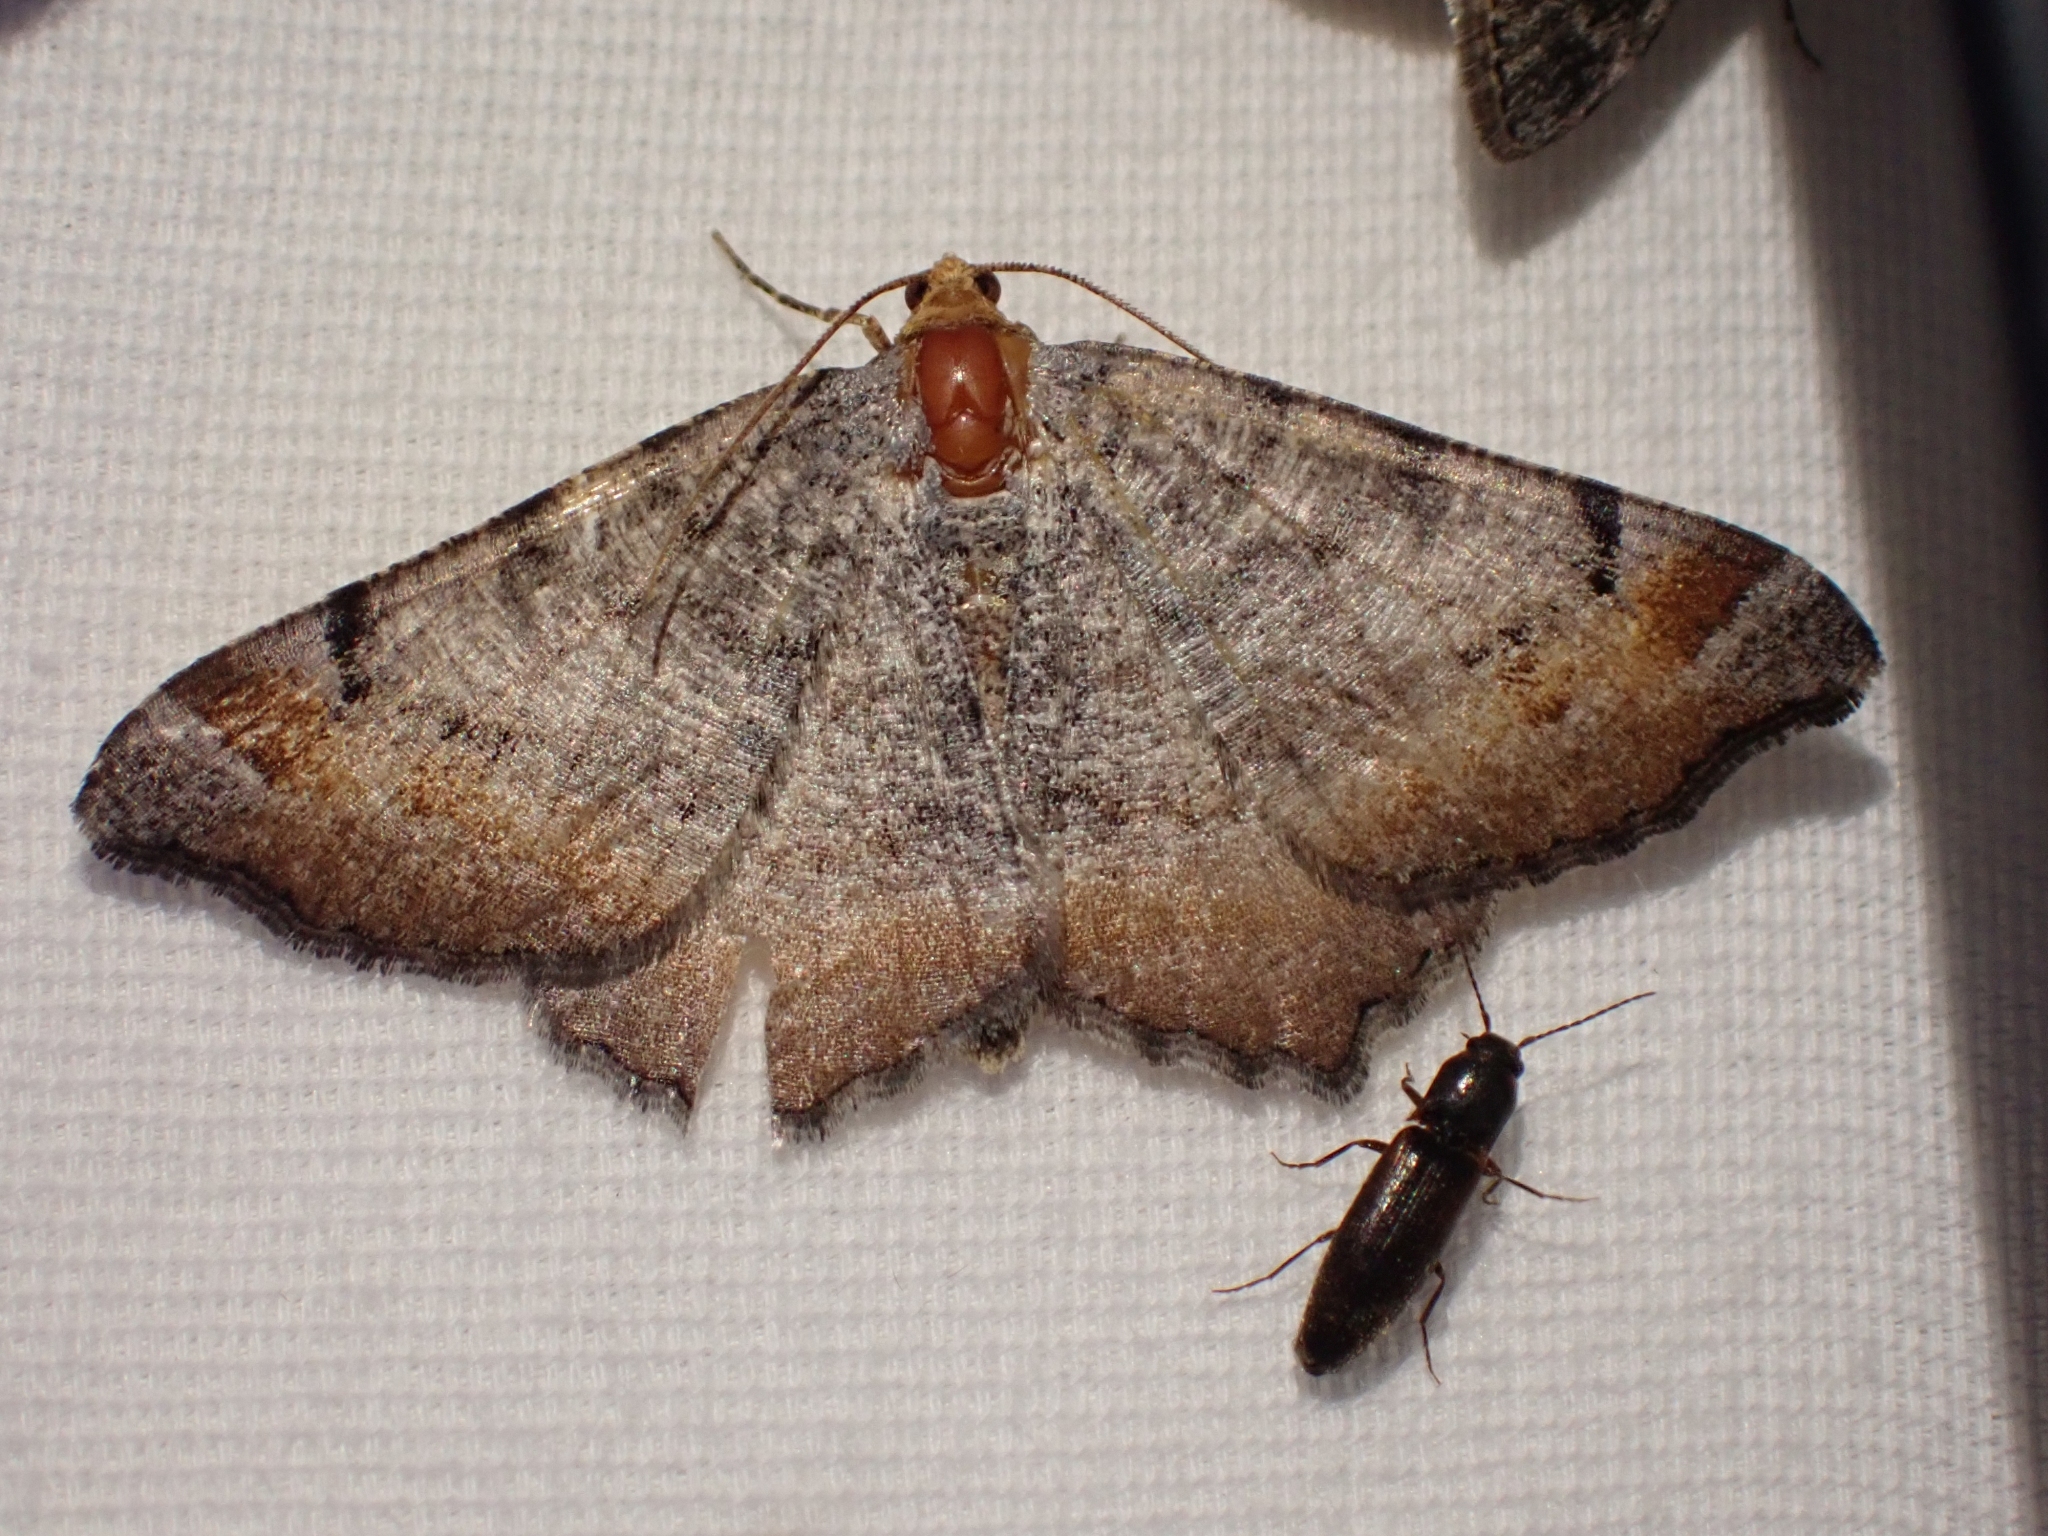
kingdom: Animalia
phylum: Arthropoda
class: Insecta
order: Lepidoptera
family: Geometridae
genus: Macaria
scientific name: Macaria adonis
